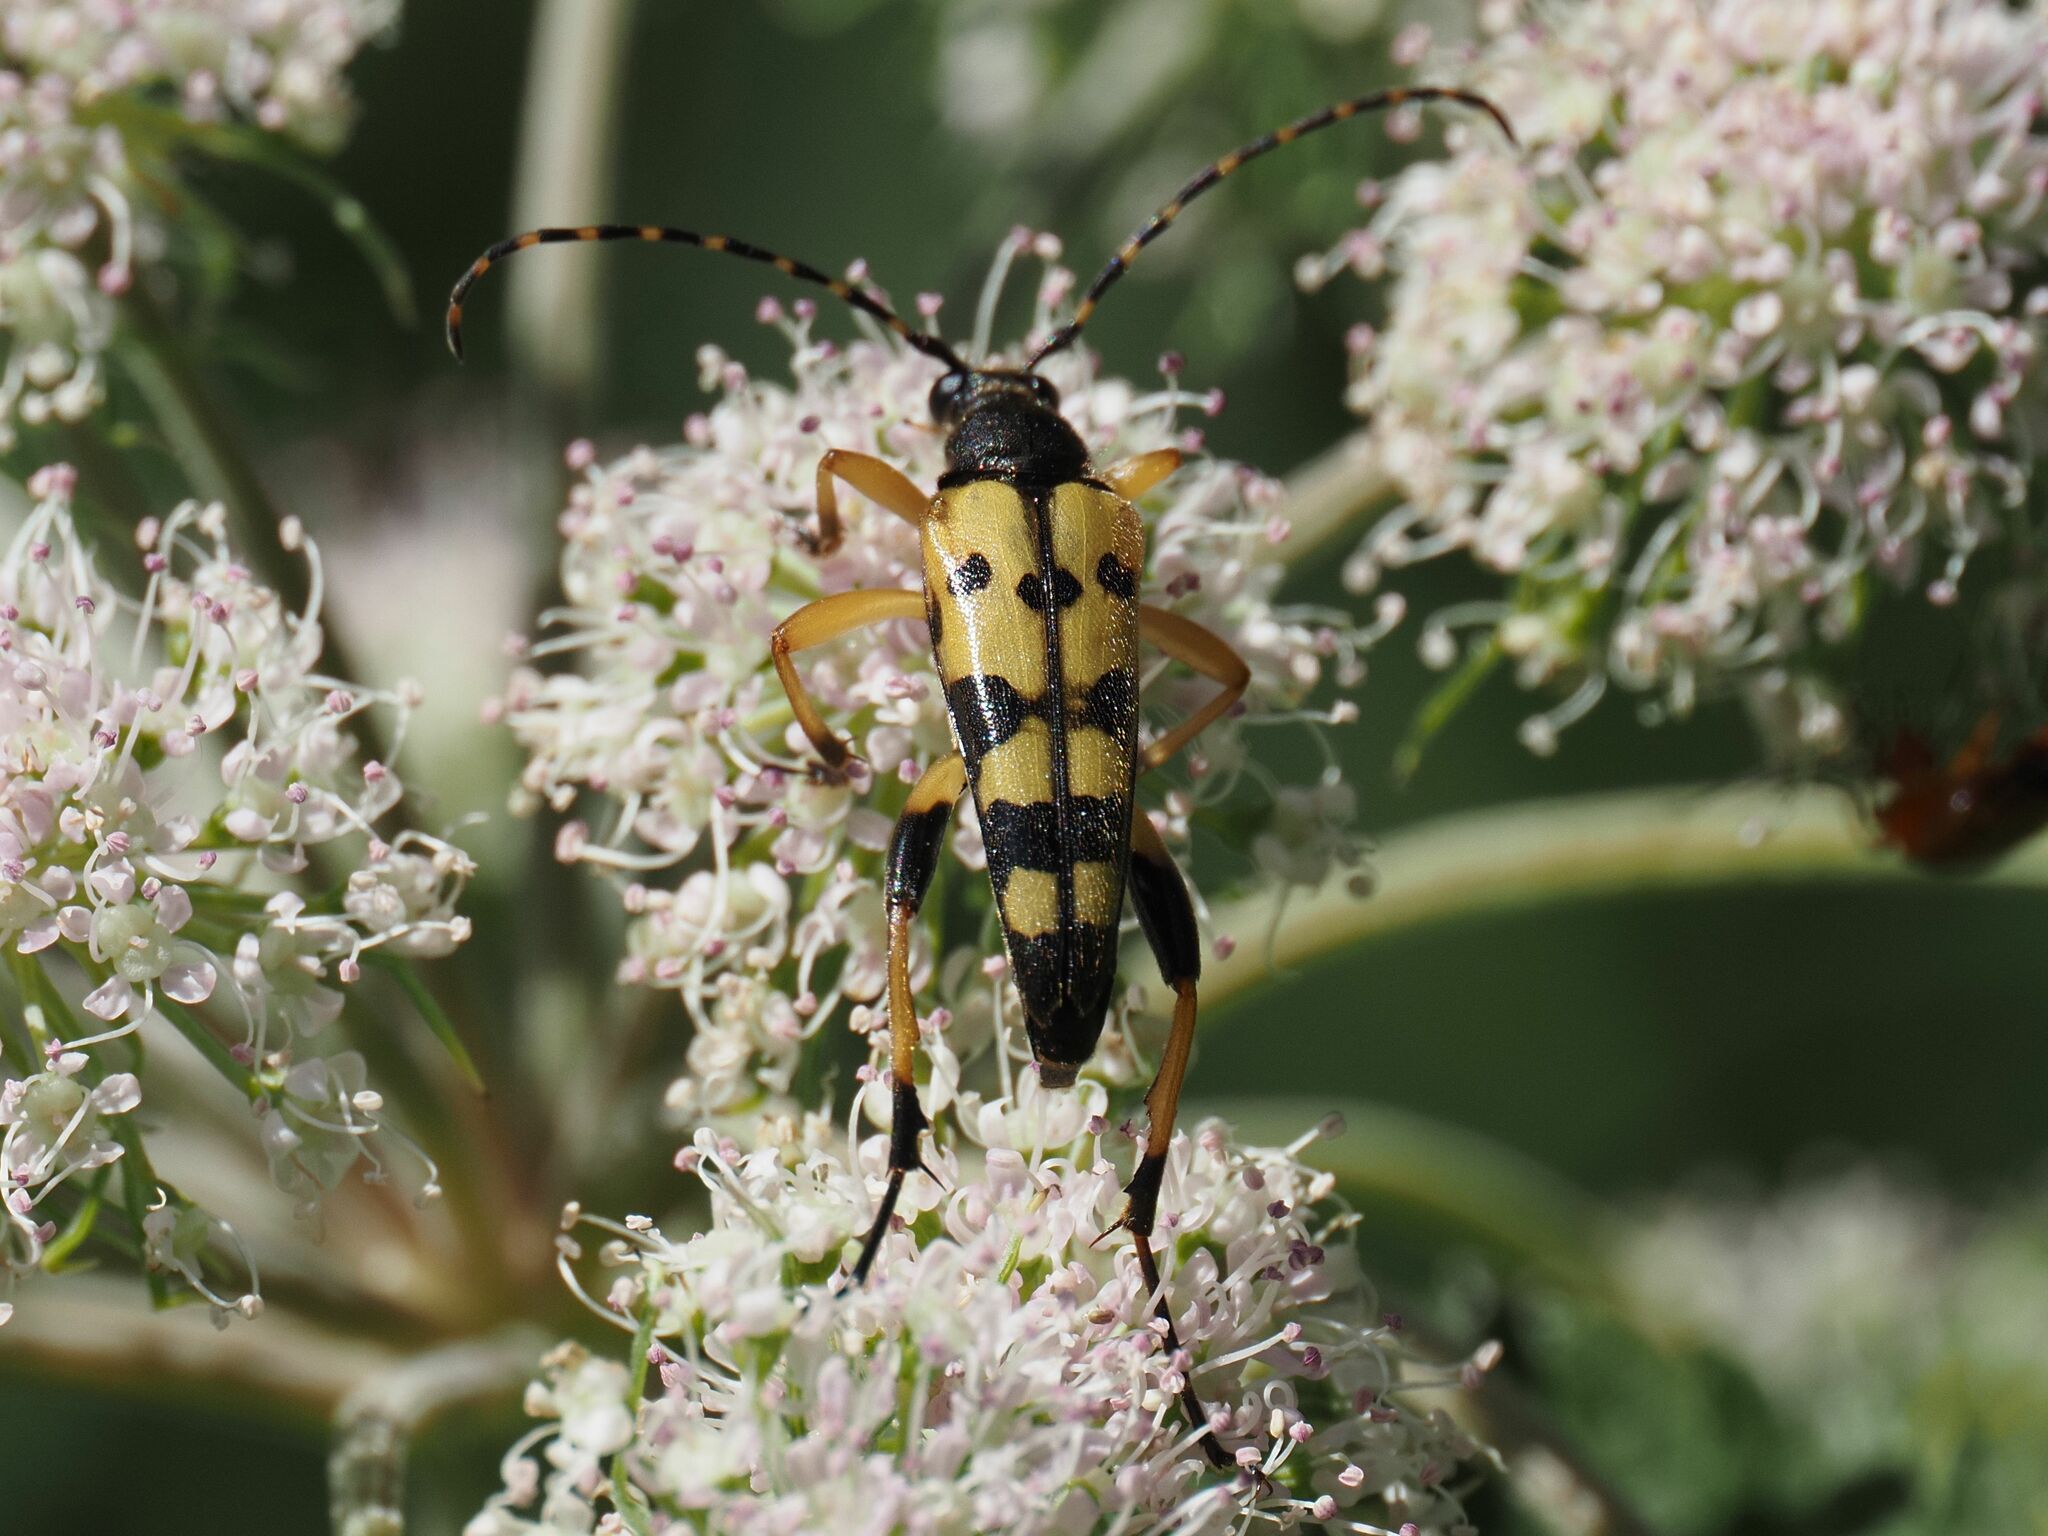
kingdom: Animalia
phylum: Arthropoda
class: Insecta
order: Coleoptera
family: Cerambycidae
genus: Rutpela
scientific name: Rutpela maculata
